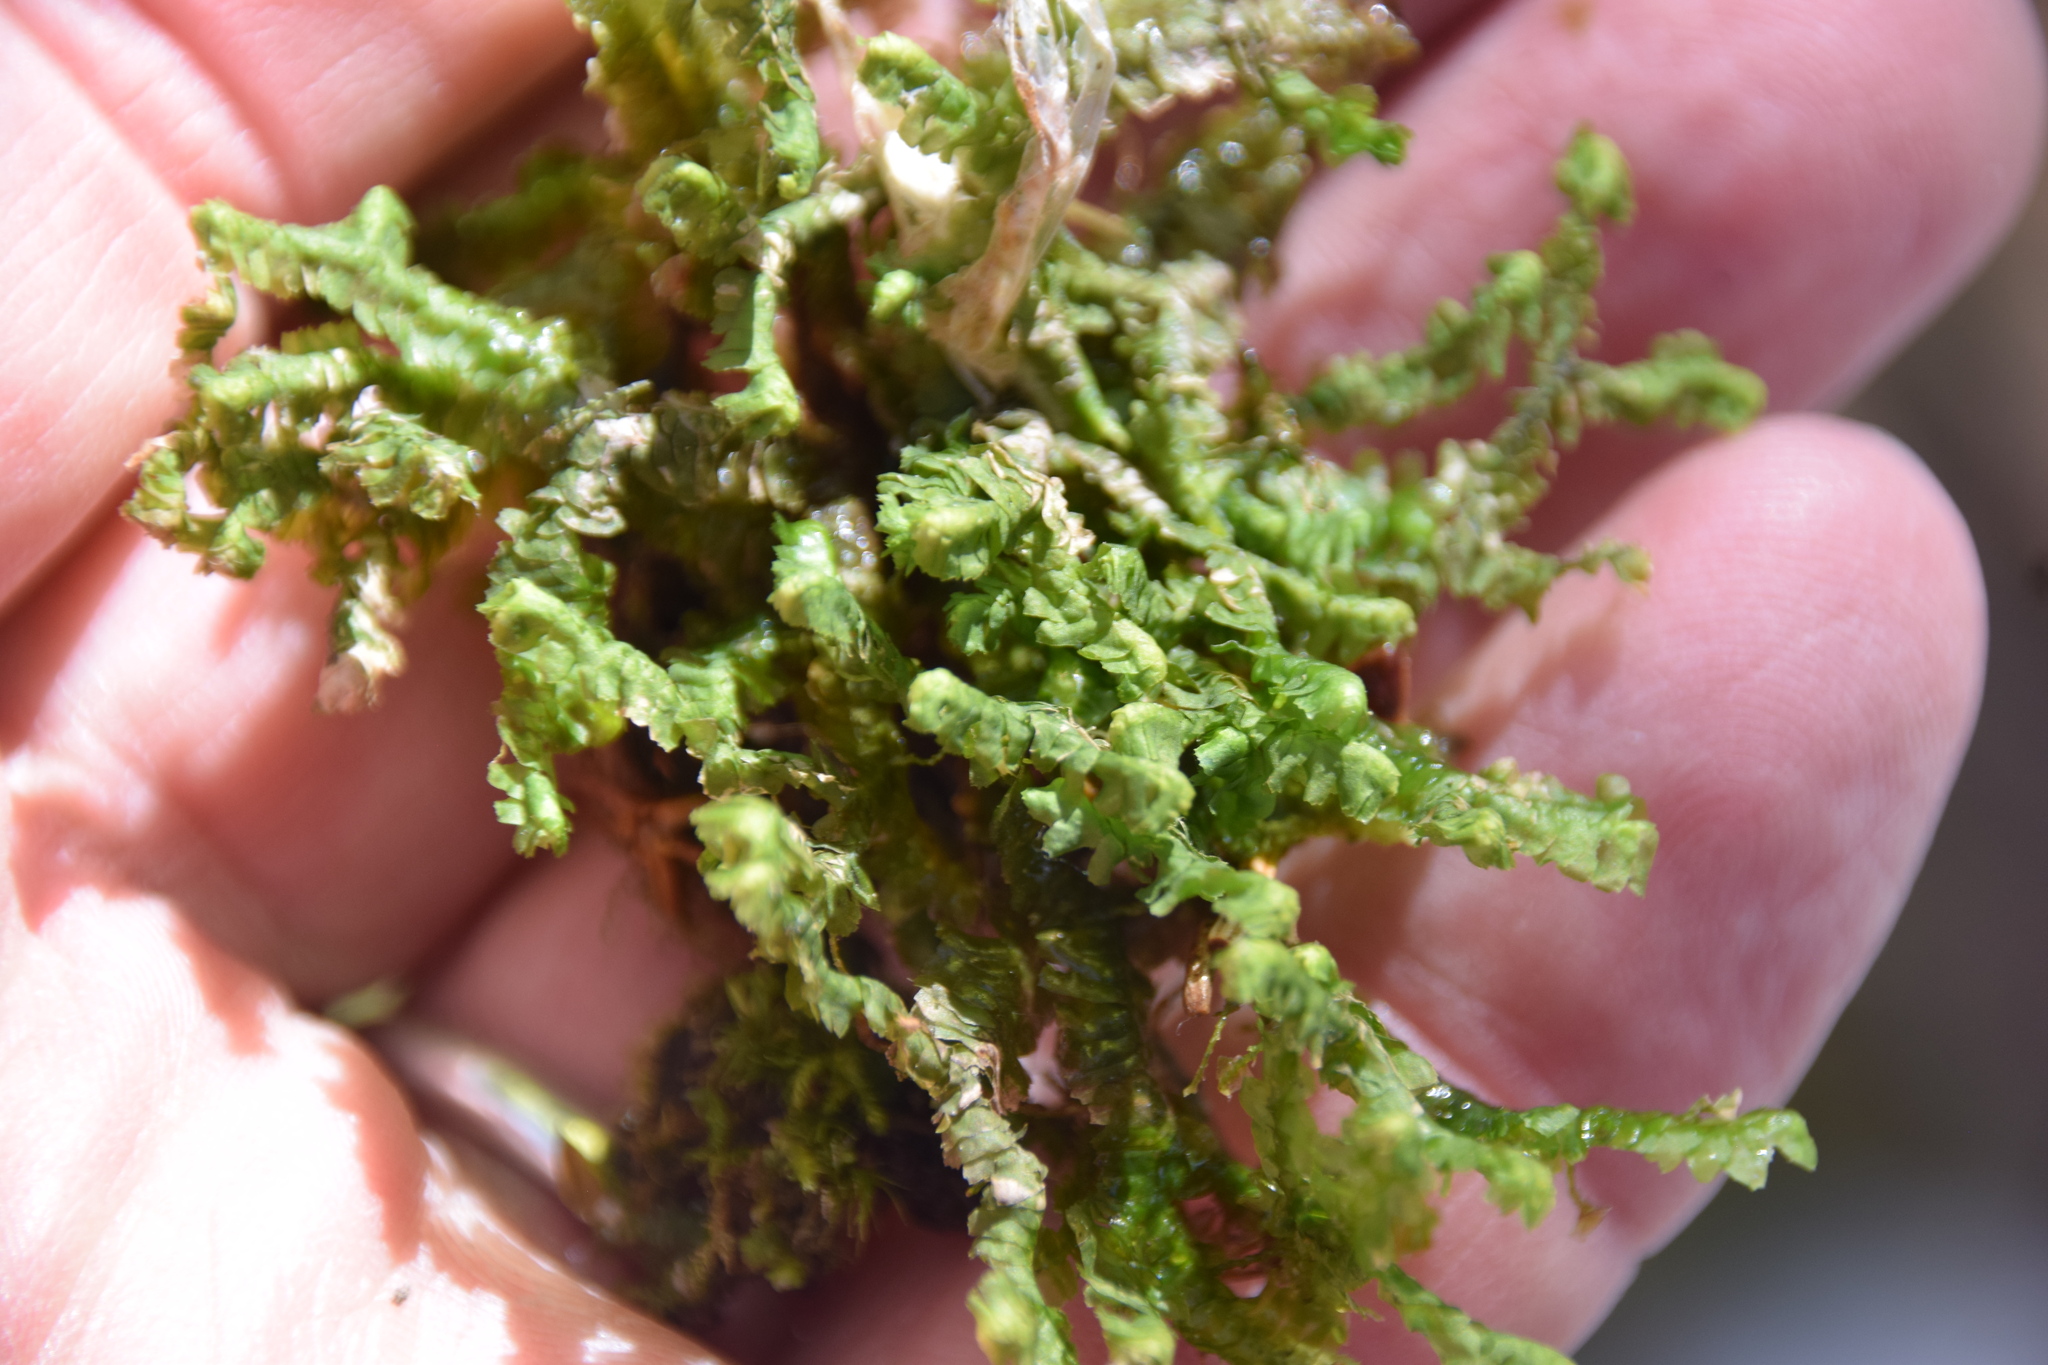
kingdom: Plantae
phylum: Marchantiophyta
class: Jungermanniopsida
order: Jungermanniales
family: Lepidoziaceae
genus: Bazzania
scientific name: Bazzania trilobata
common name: Three-lobed whipwort
